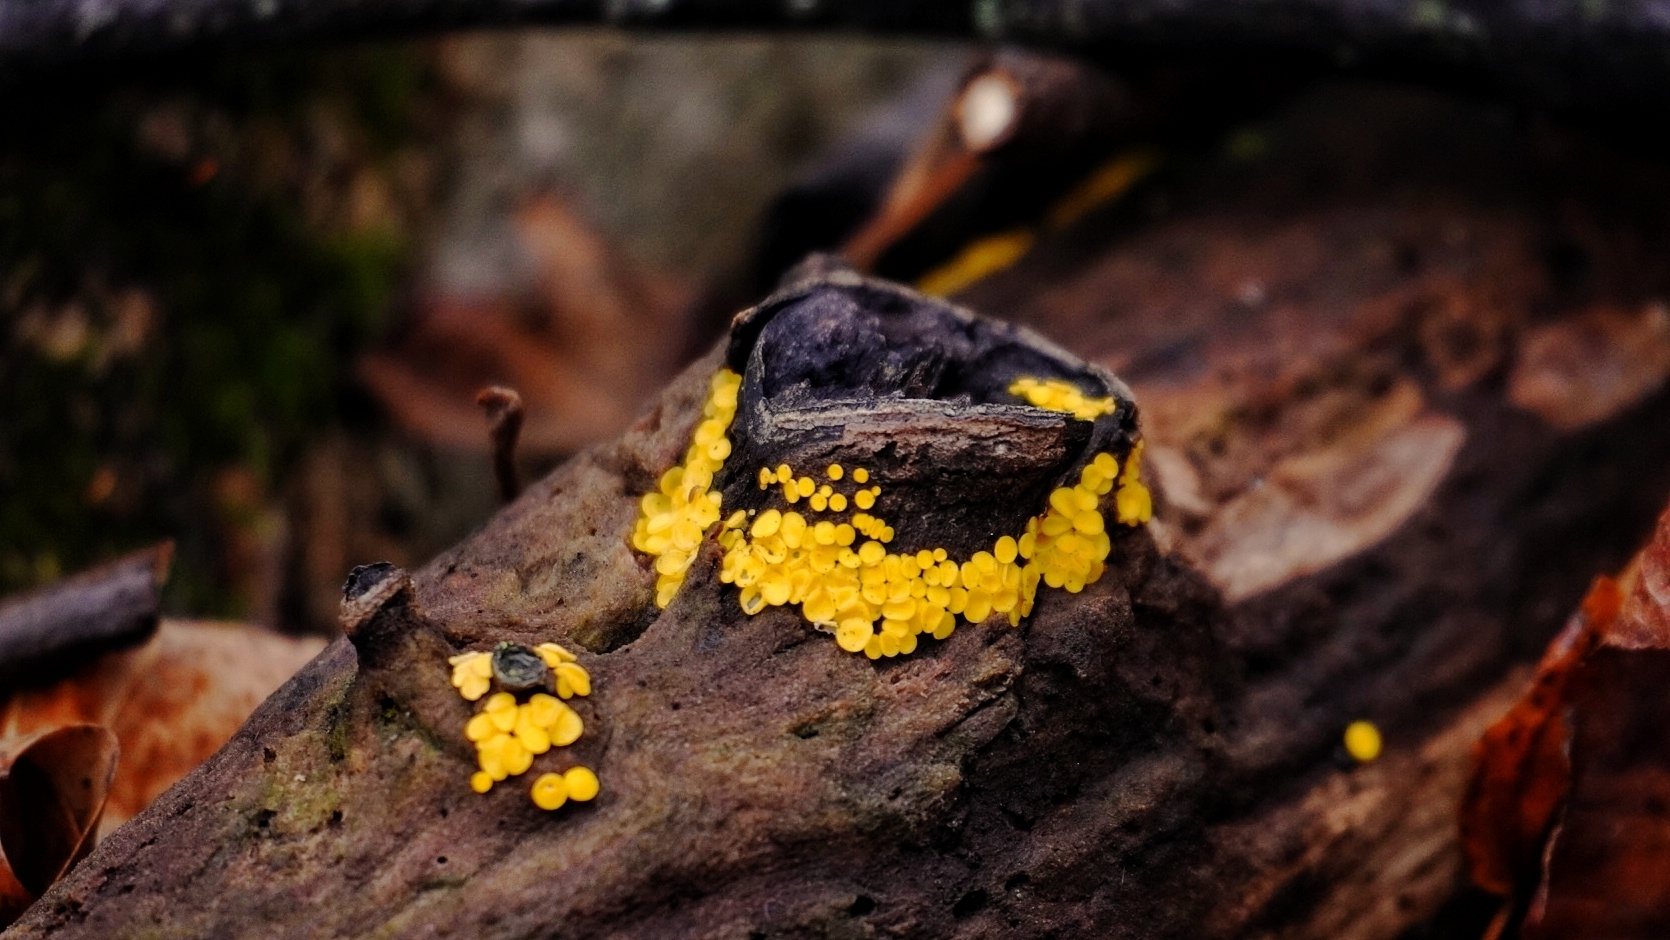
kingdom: Fungi
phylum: Ascomycota
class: Leotiomycetes
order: Helotiales
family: Pezizellaceae
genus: Calycina
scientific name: Calycina citrina
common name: Yellow fairy cups
